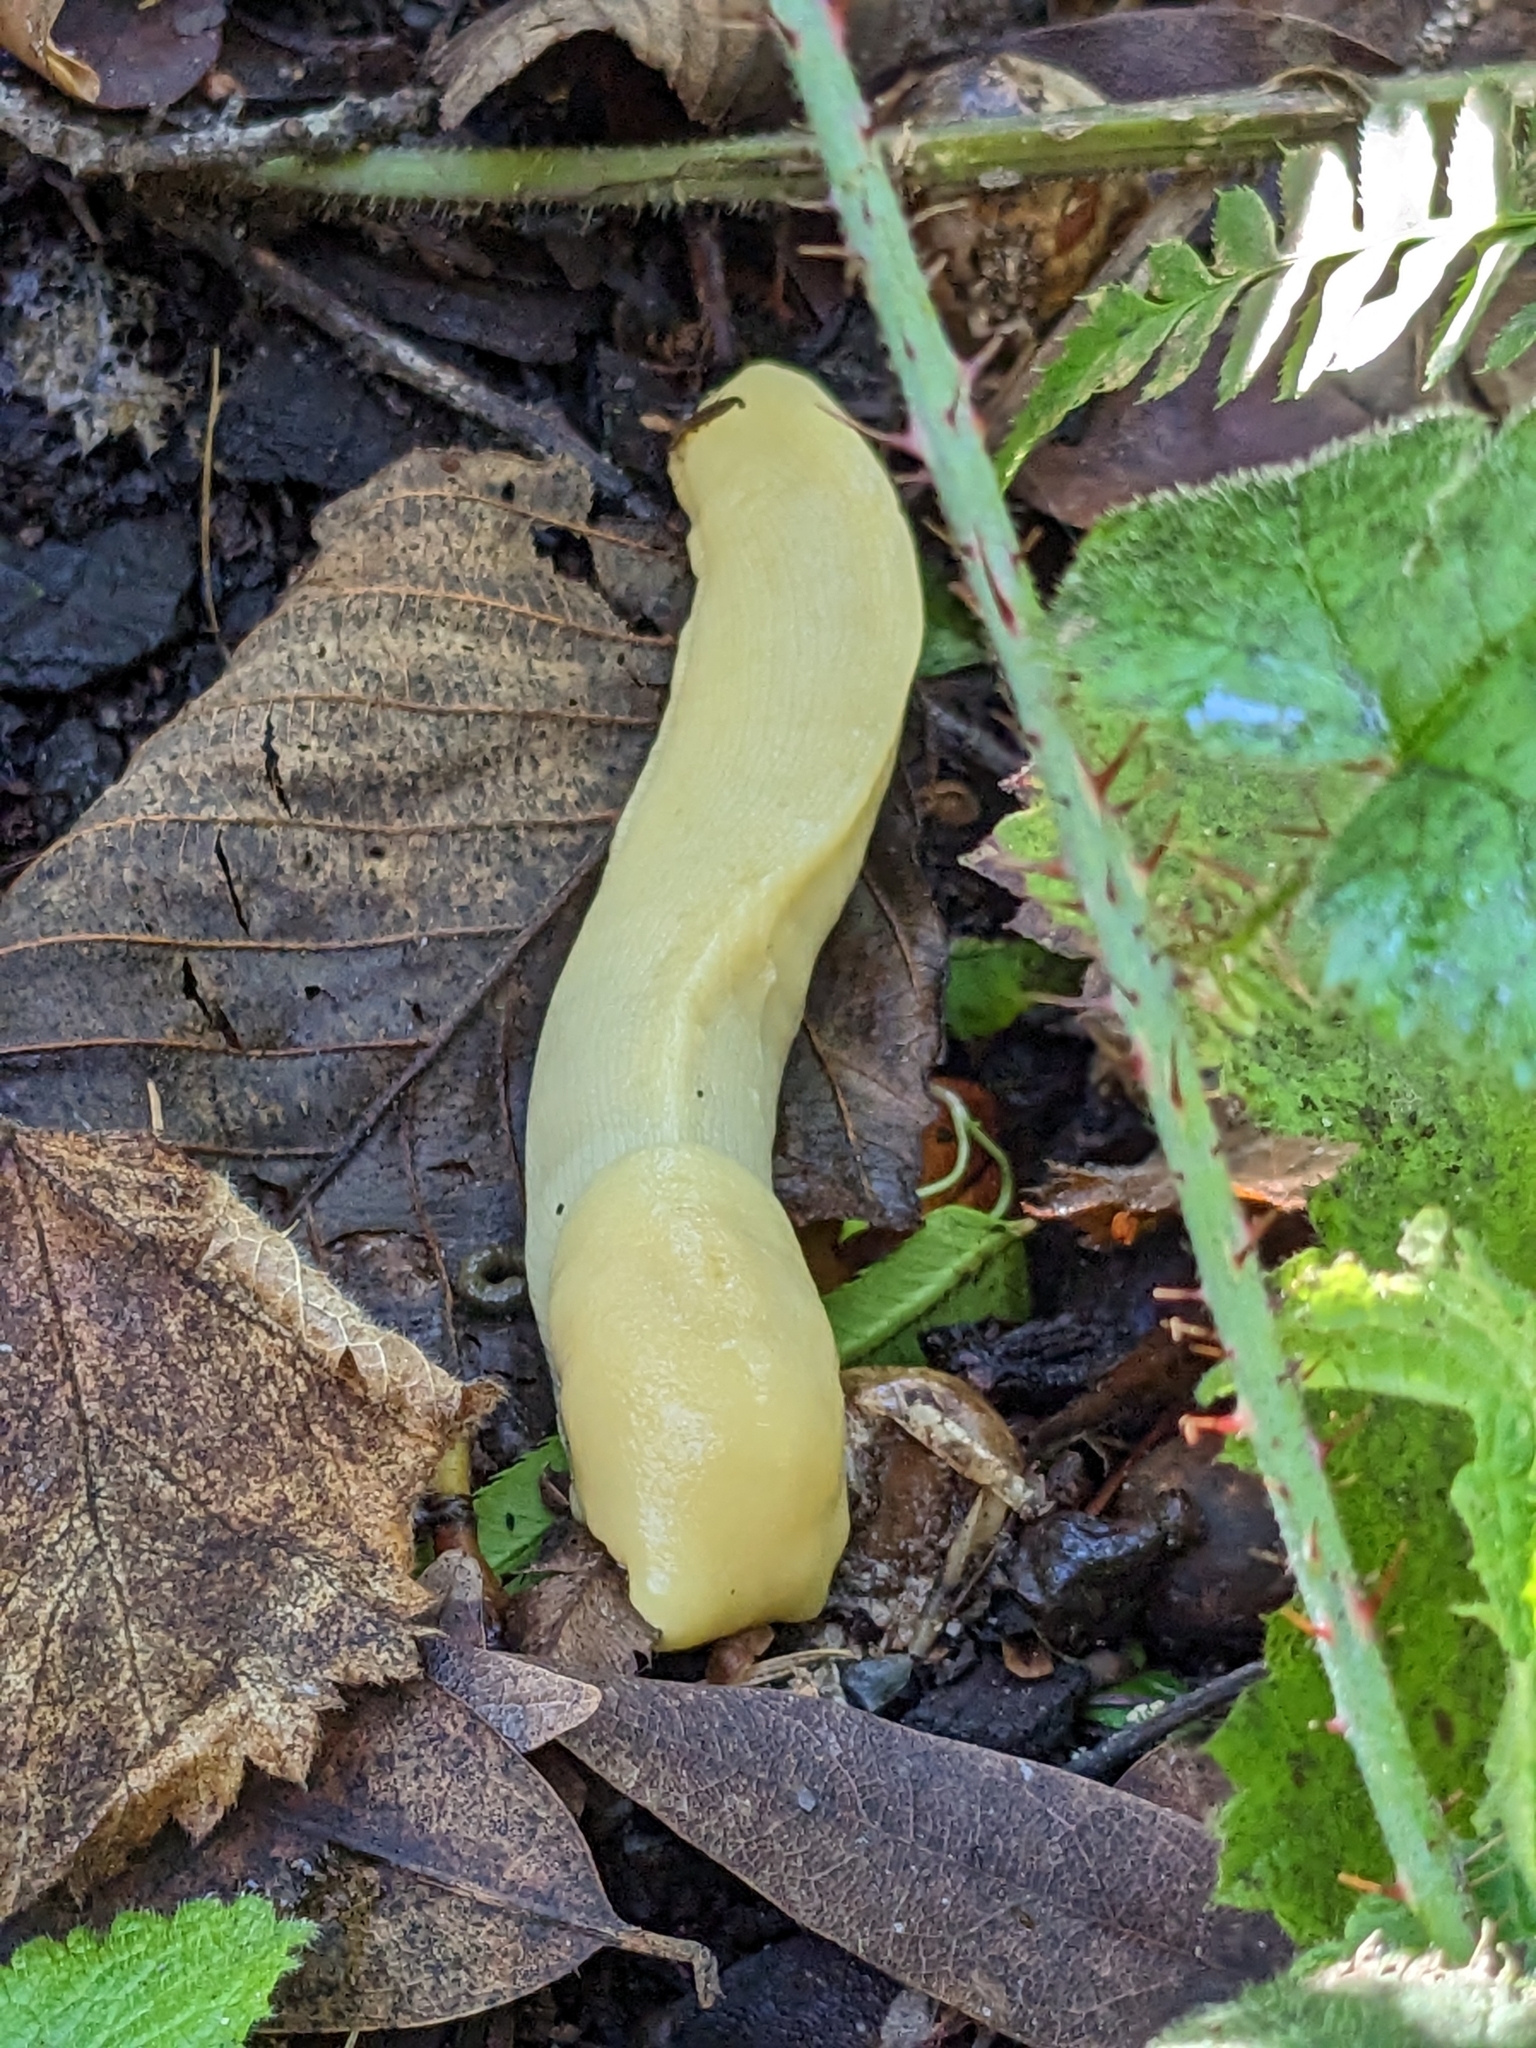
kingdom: Animalia
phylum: Mollusca
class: Gastropoda
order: Stylommatophora
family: Ariolimacidae
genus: Ariolimax
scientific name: Ariolimax buttoni
